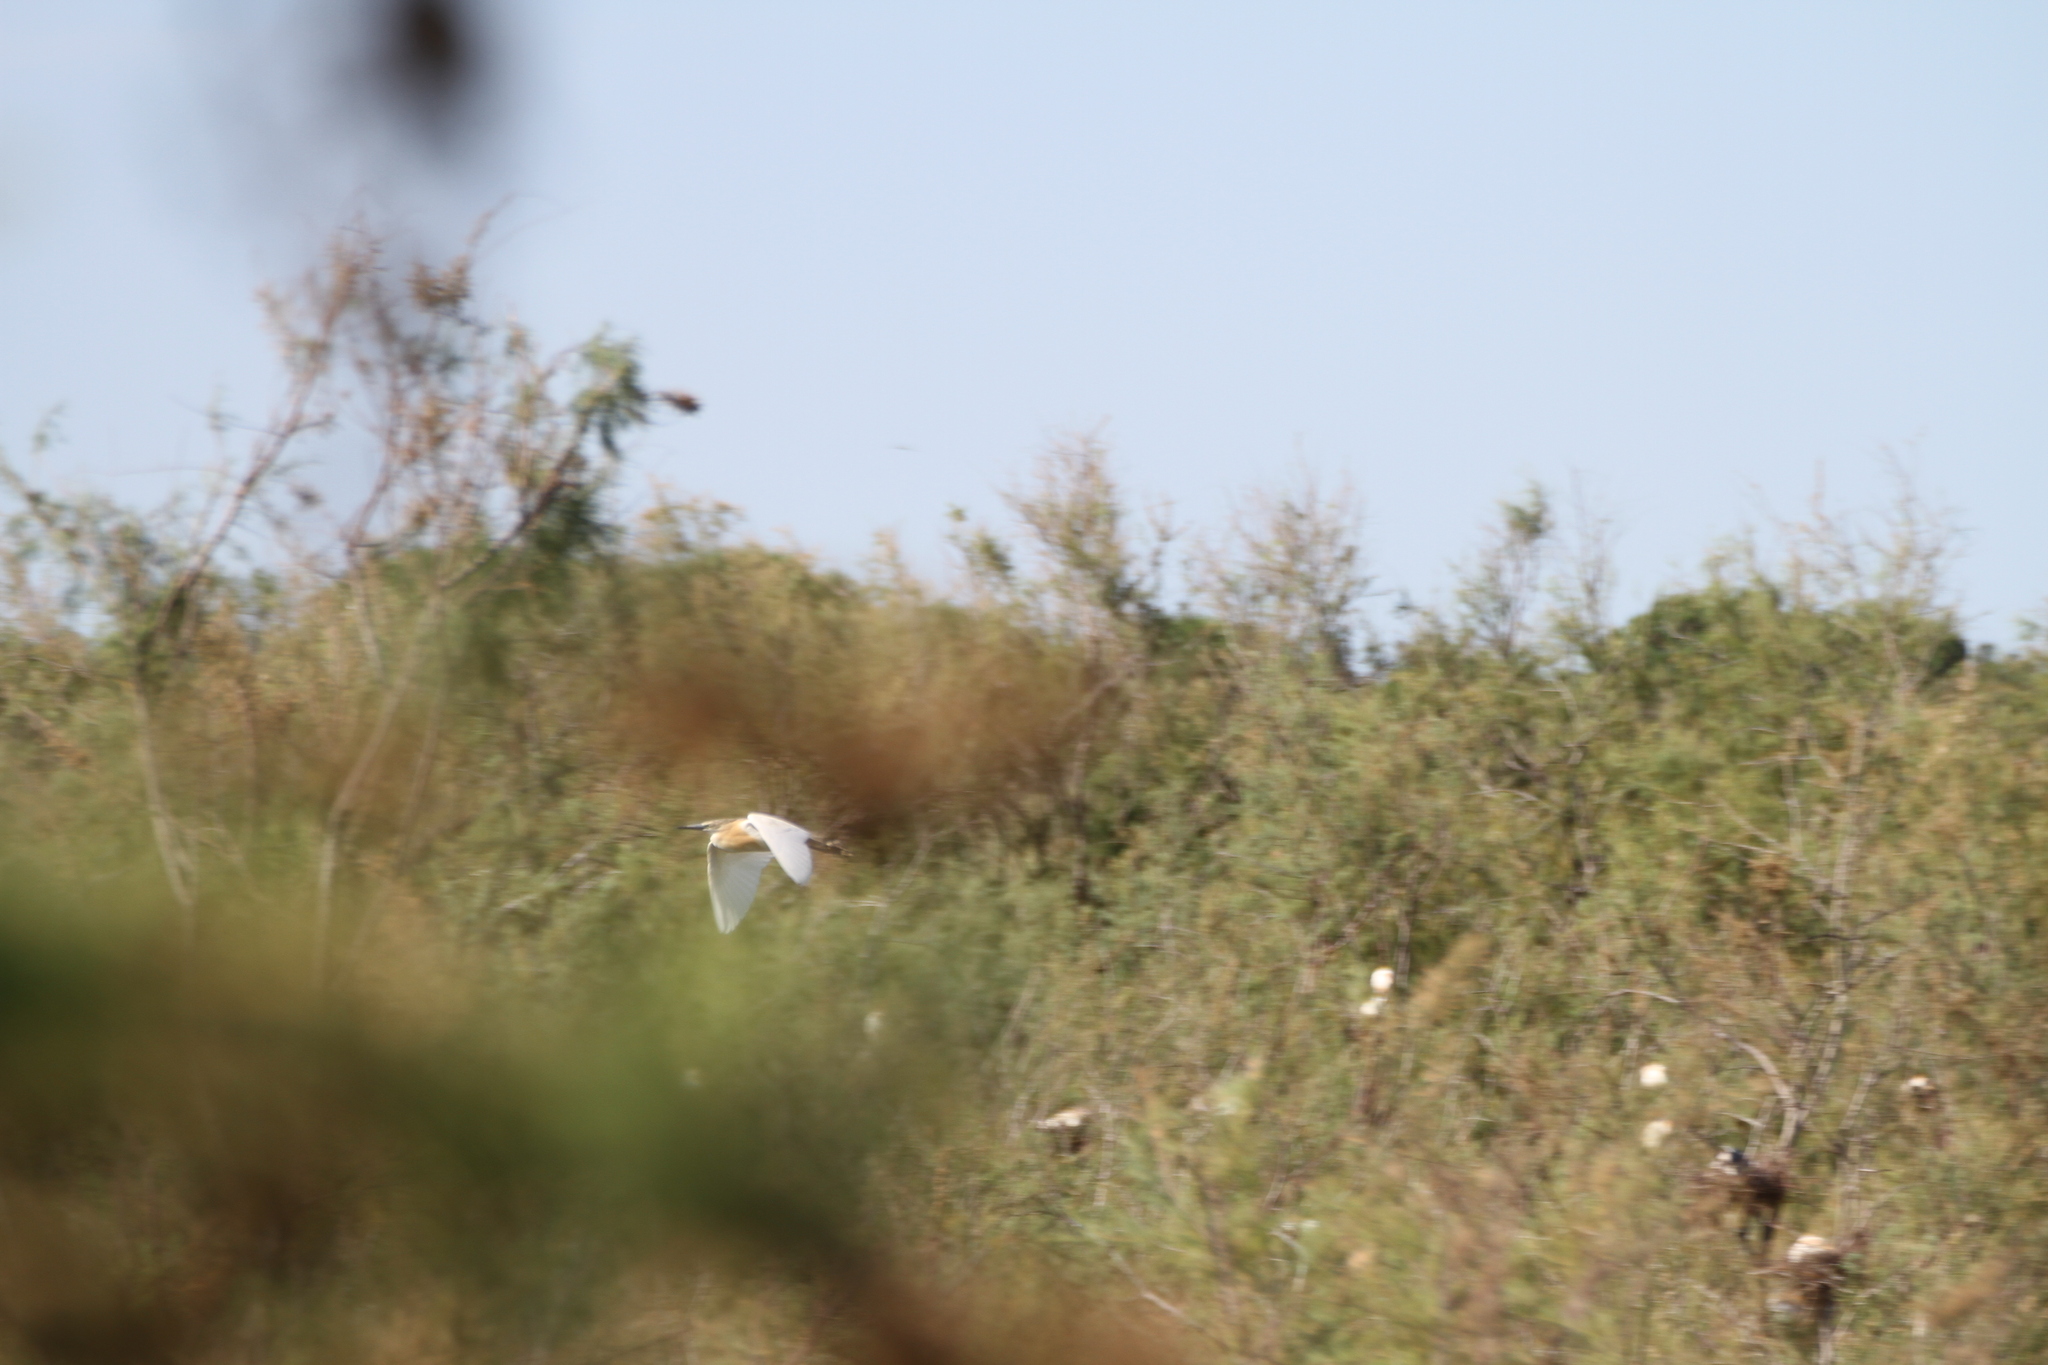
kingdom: Animalia
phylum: Chordata
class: Aves
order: Pelecaniformes
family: Ardeidae
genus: Ardeola
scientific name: Ardeola ralloides
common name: Squacco heron
